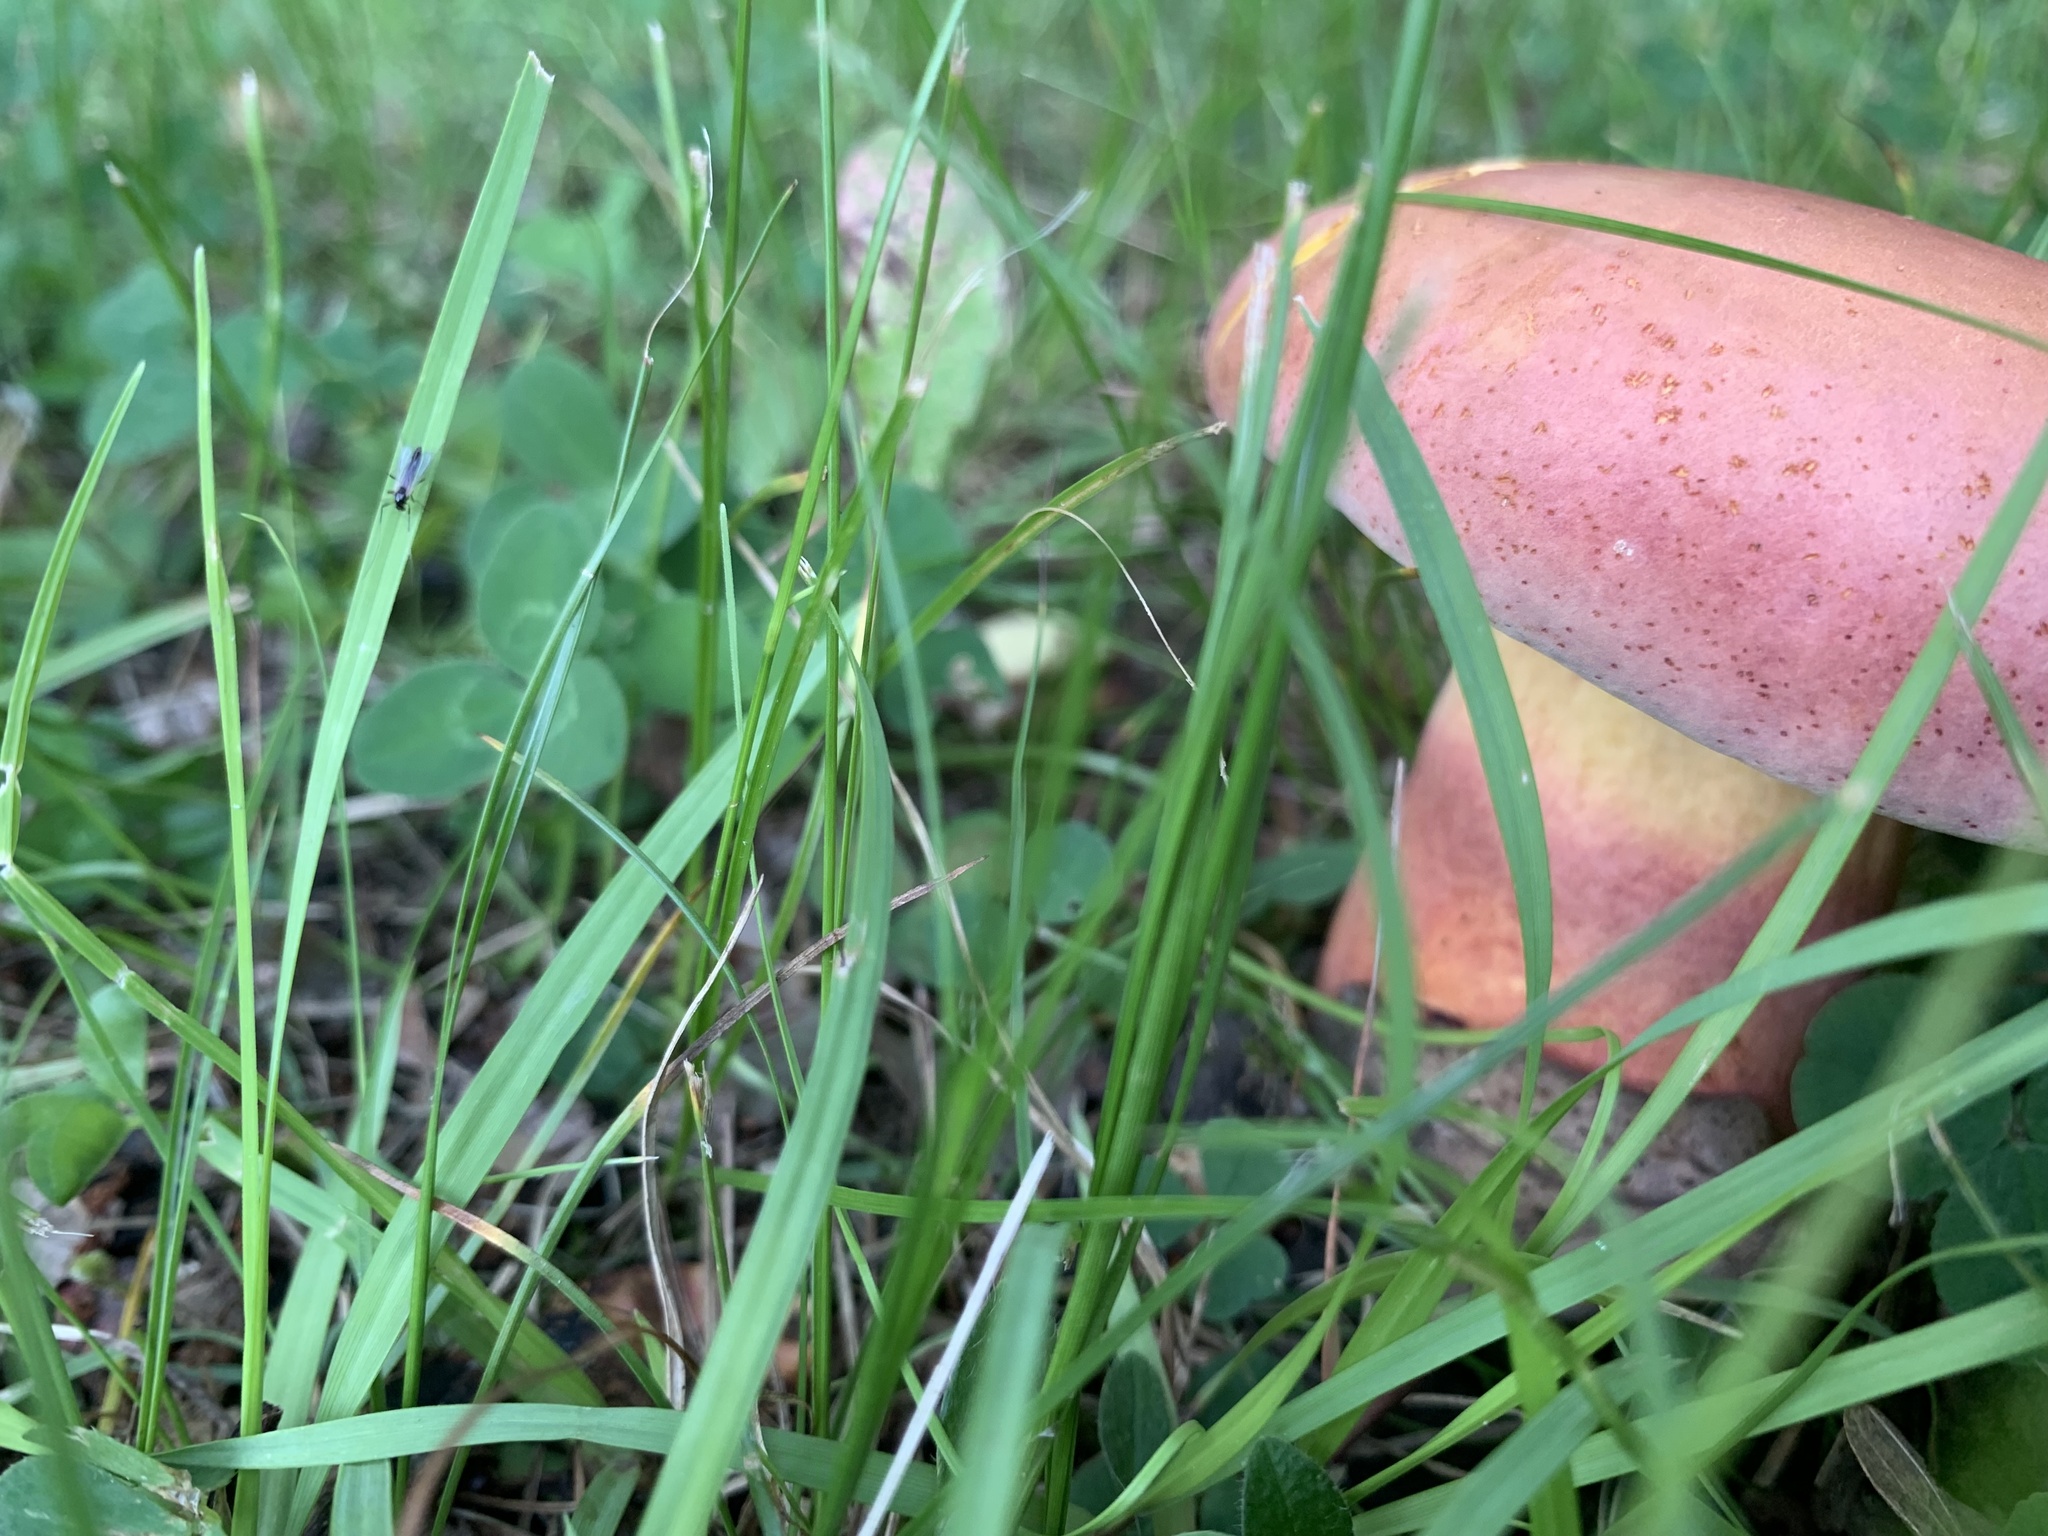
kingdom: Fungi
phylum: Basidiomycota
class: Agaricomycetes
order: Boletales
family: Boletaceae
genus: Lanmaoa
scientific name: Lanmaoa pallidorosea
